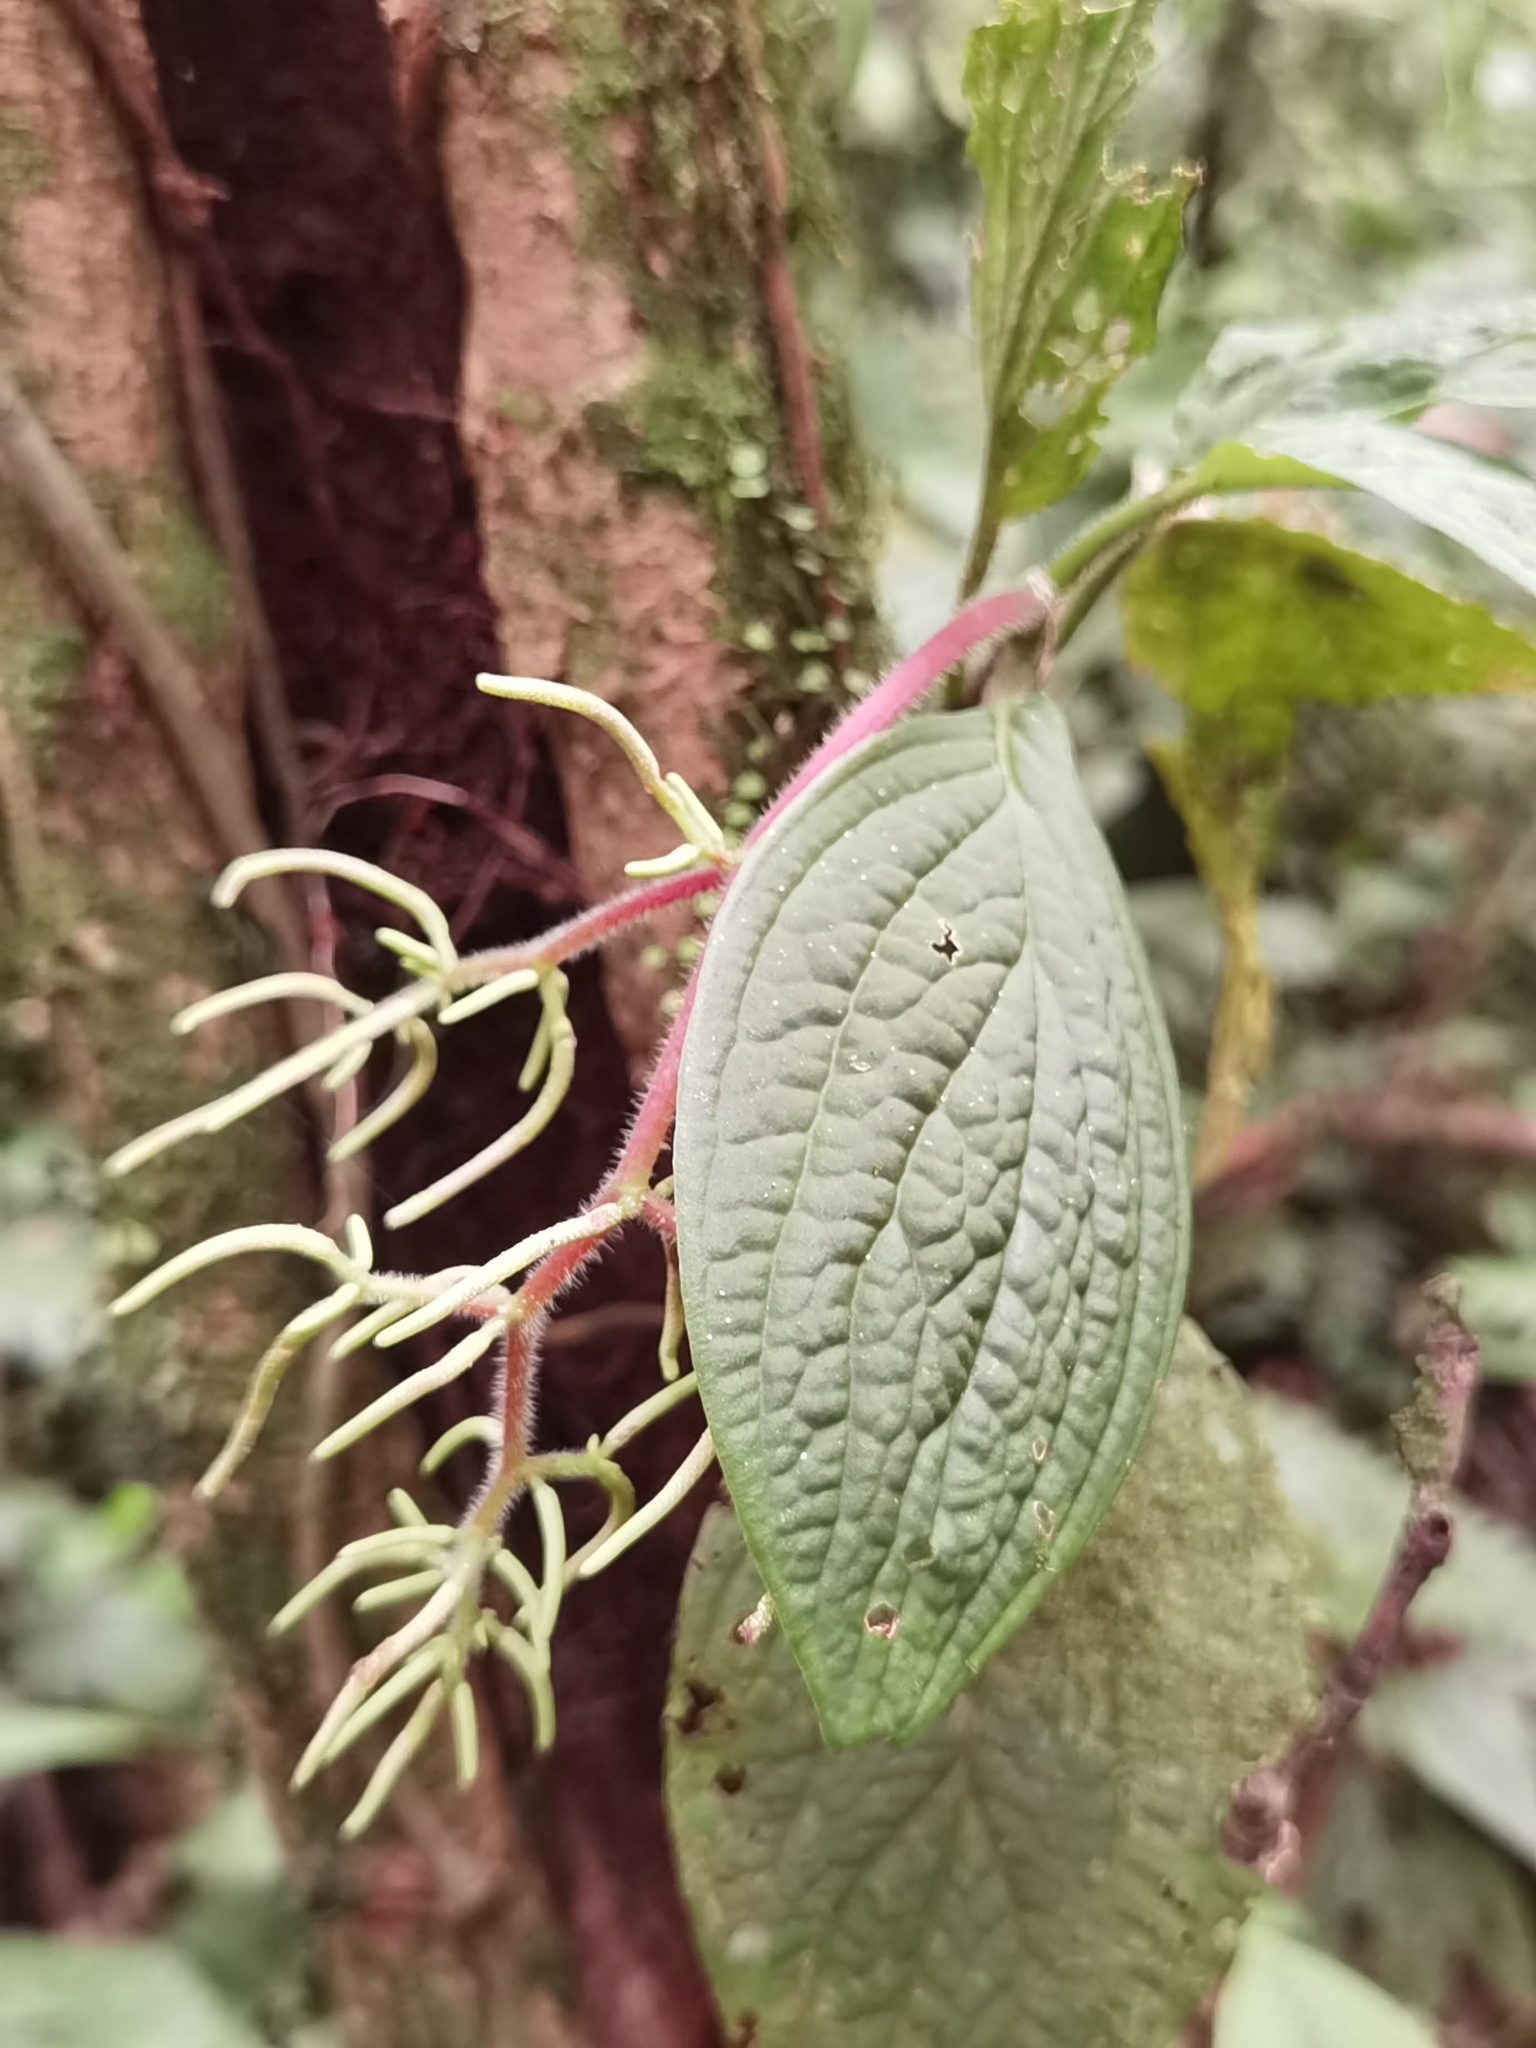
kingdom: Plantae
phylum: Tracheophyta
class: Magnoliopsida
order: Piperales
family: Piperaceae
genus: Peperomia
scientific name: Peperomia guapilesiana
